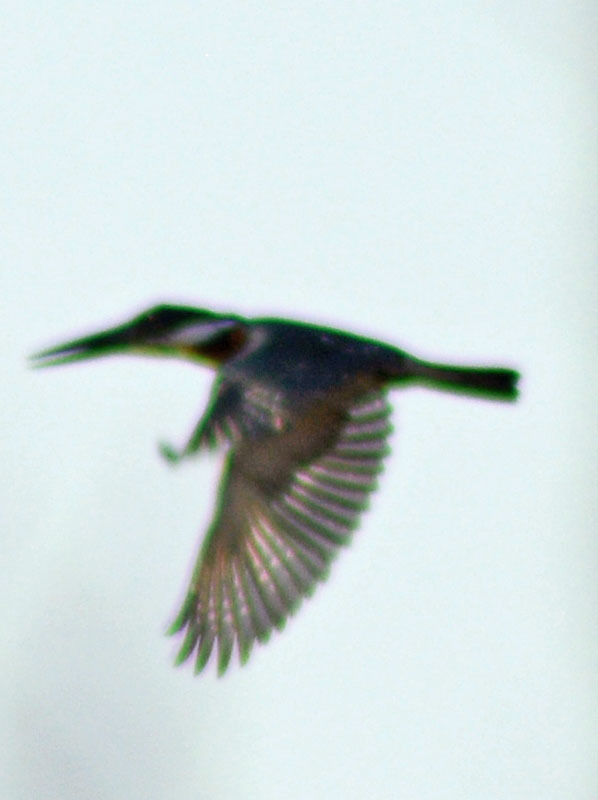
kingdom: Animalia
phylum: Chordata
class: Aves
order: Coraciiformes
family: Alcedinidae
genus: Megaceryle
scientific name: Megaceryle torquata
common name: Ringed kingfisher
